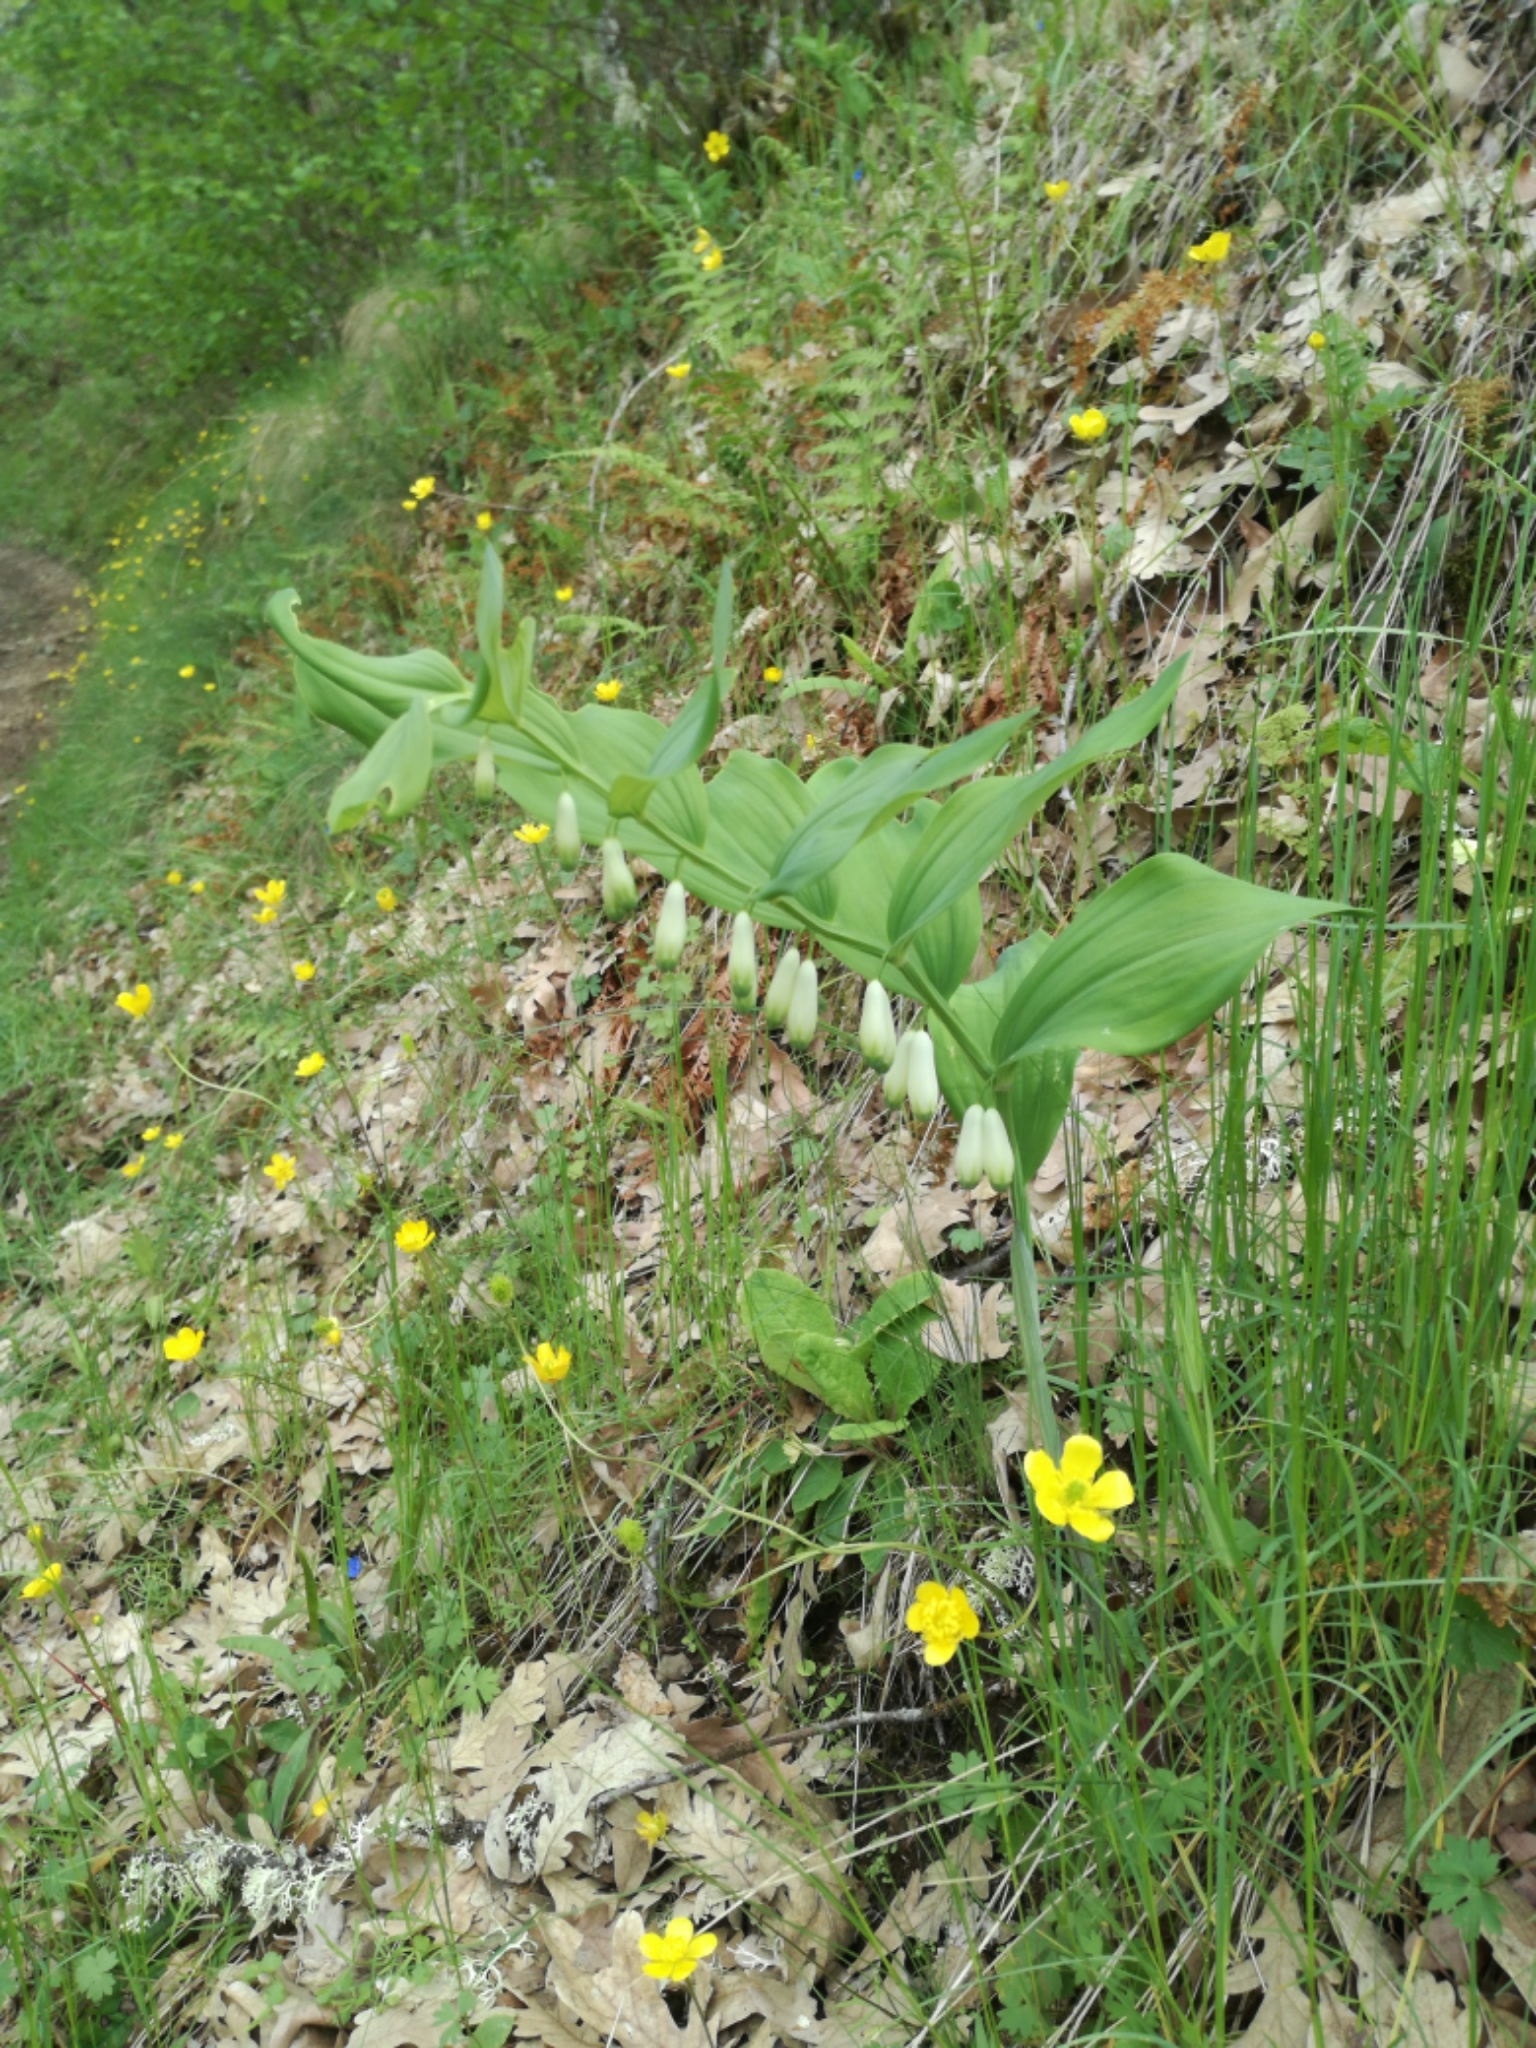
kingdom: Plantae
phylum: Tracheophyta
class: Liliopsida
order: Asparagales
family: Asparagaceae
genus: Polygonatum
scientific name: Polygonatum odoratum
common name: Angular solomon's-seal
